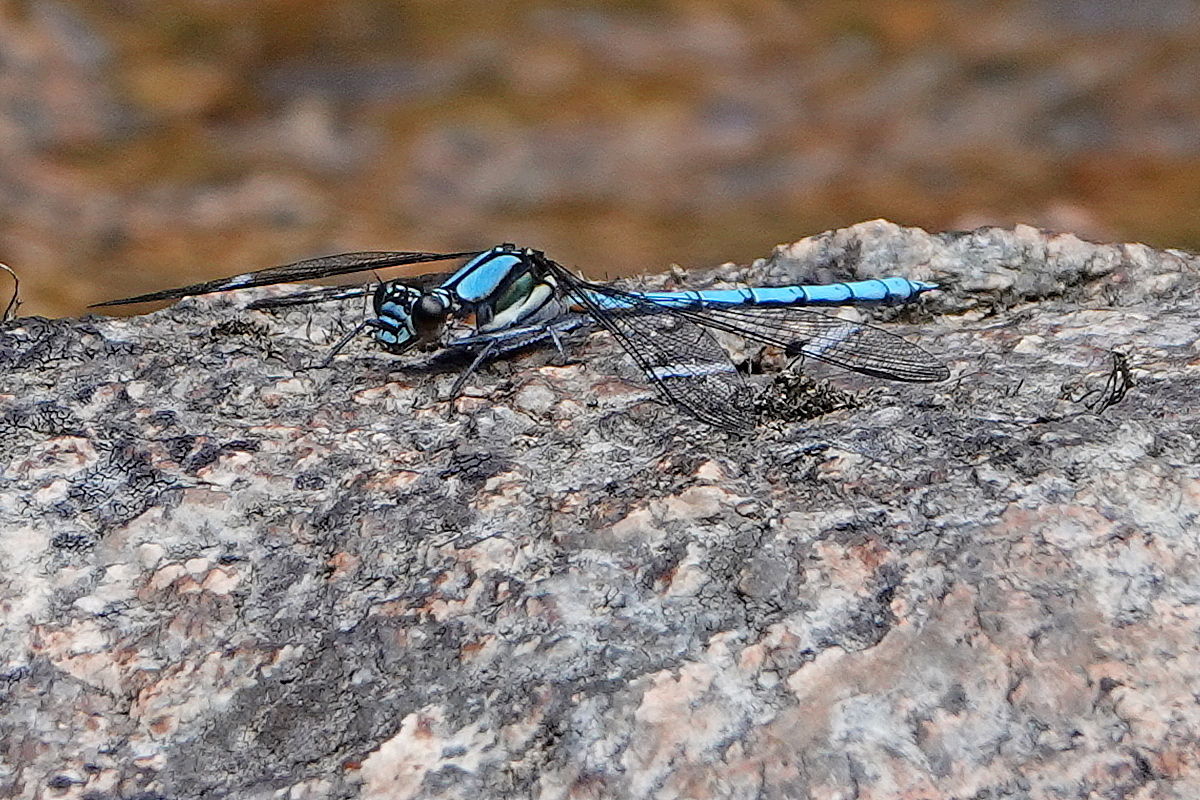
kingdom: Animalia
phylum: Arthropoda
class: Insecta
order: Odonata
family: Lestoideidae
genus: Diphlebia
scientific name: Diphlebia lestoides
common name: Whitewater rockmaster
